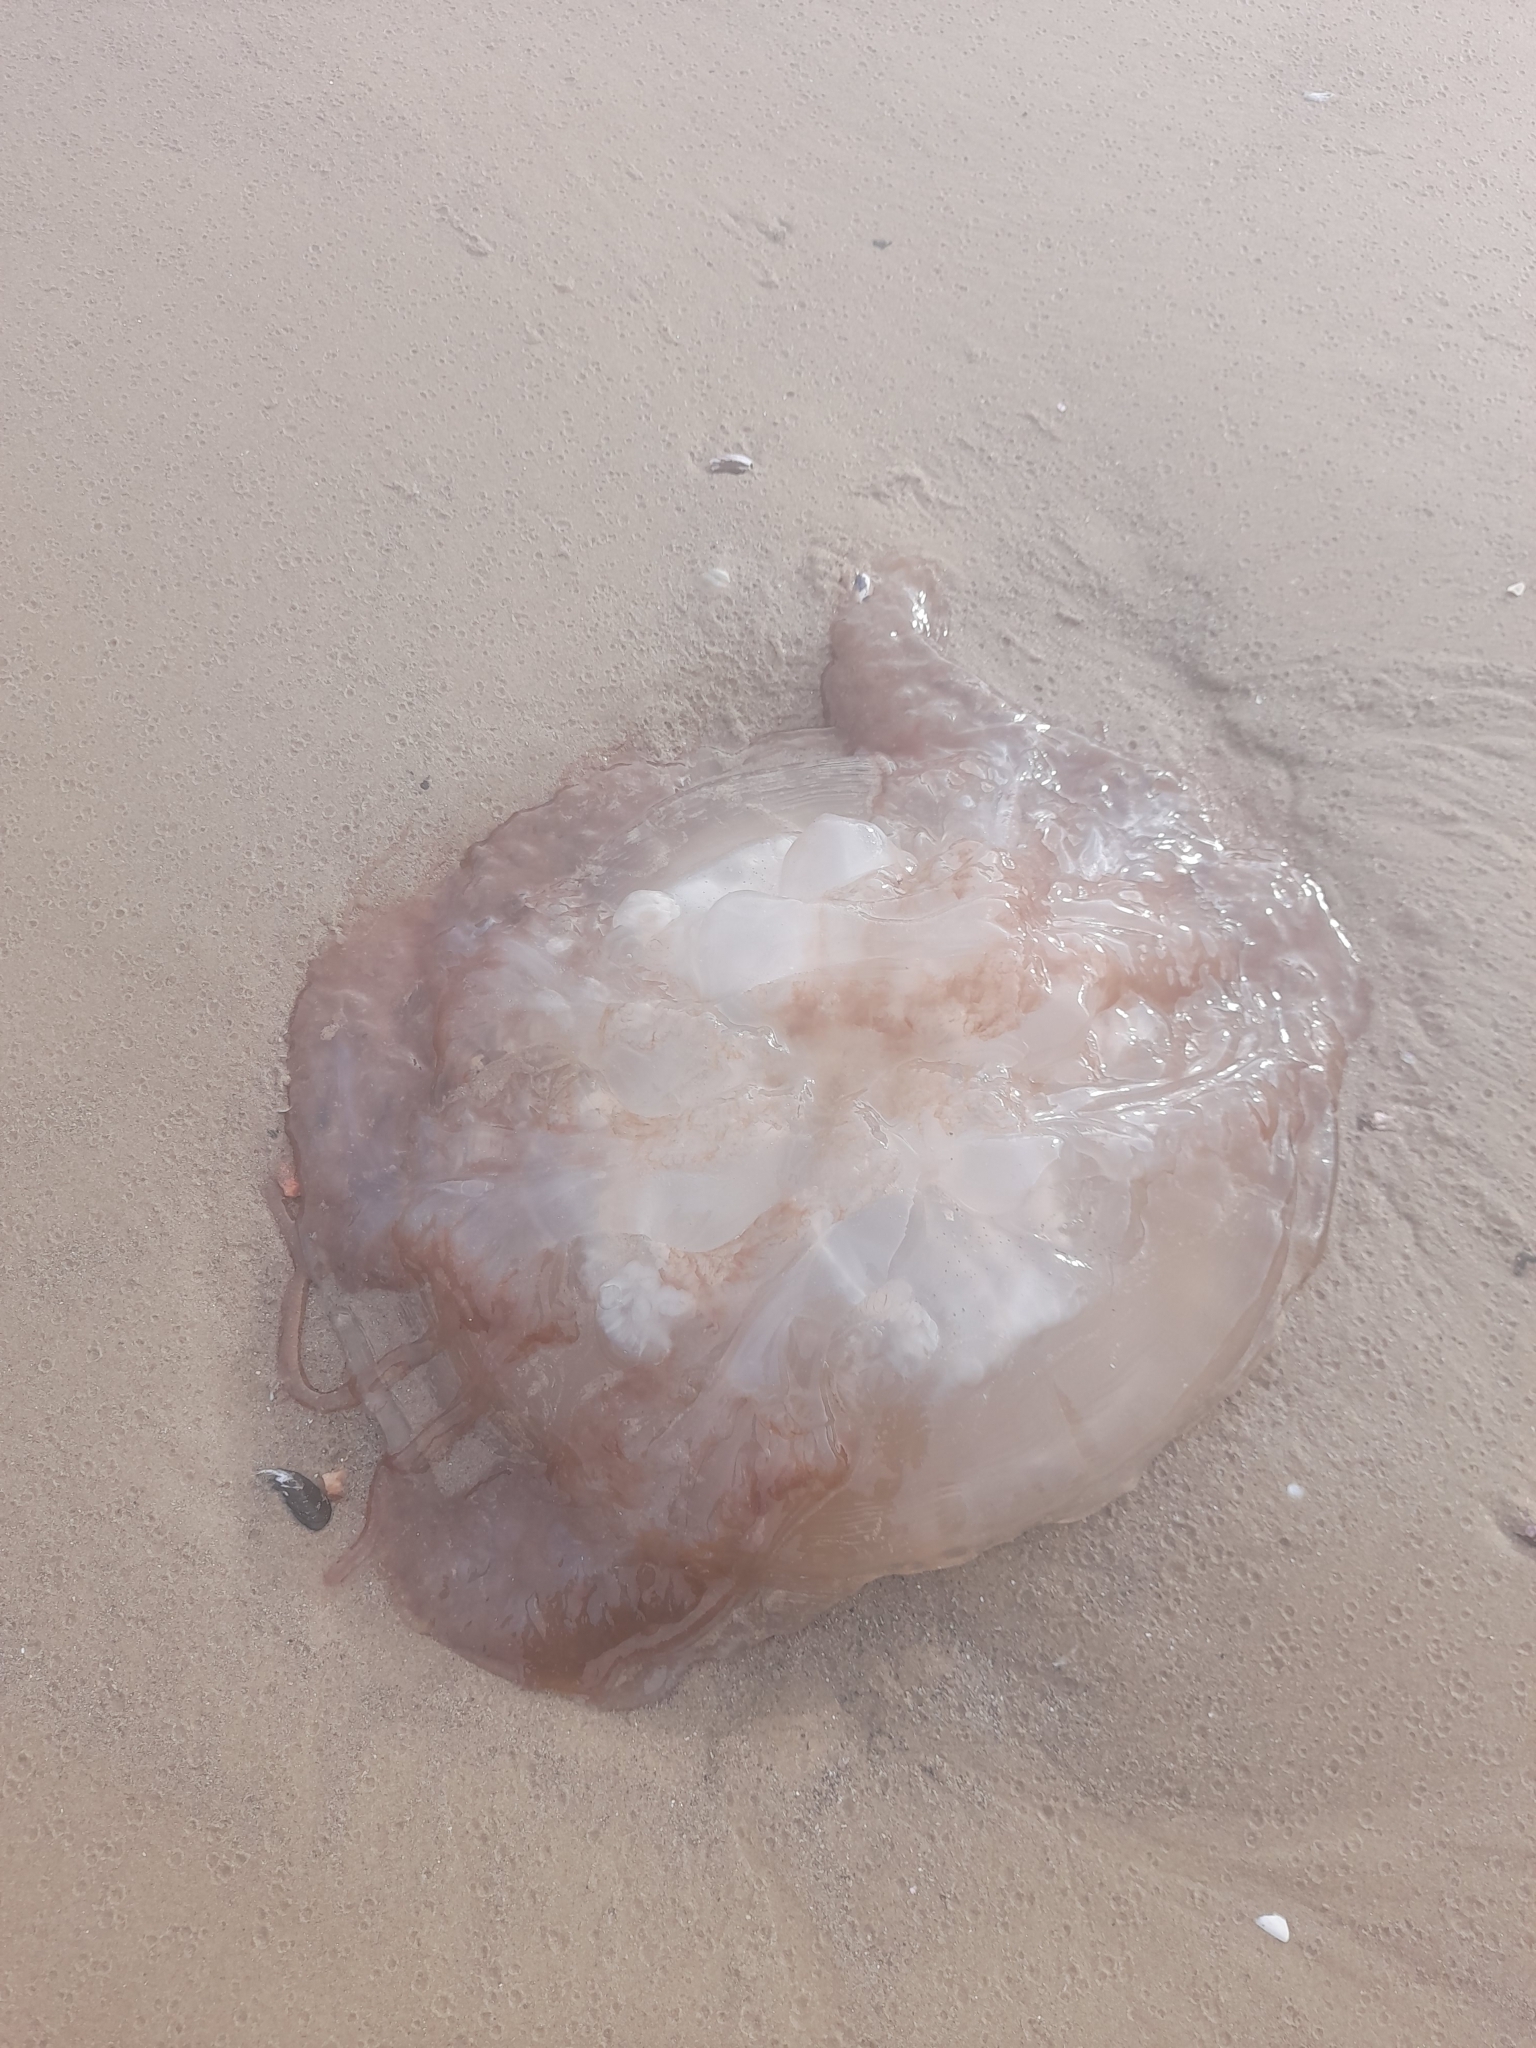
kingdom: Animalia
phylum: Cnidaria
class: Scyphozoa
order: Rhizostomeae
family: Lychnorhizidae
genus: Lychnorhiza
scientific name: Lychnorhiza lucerna
